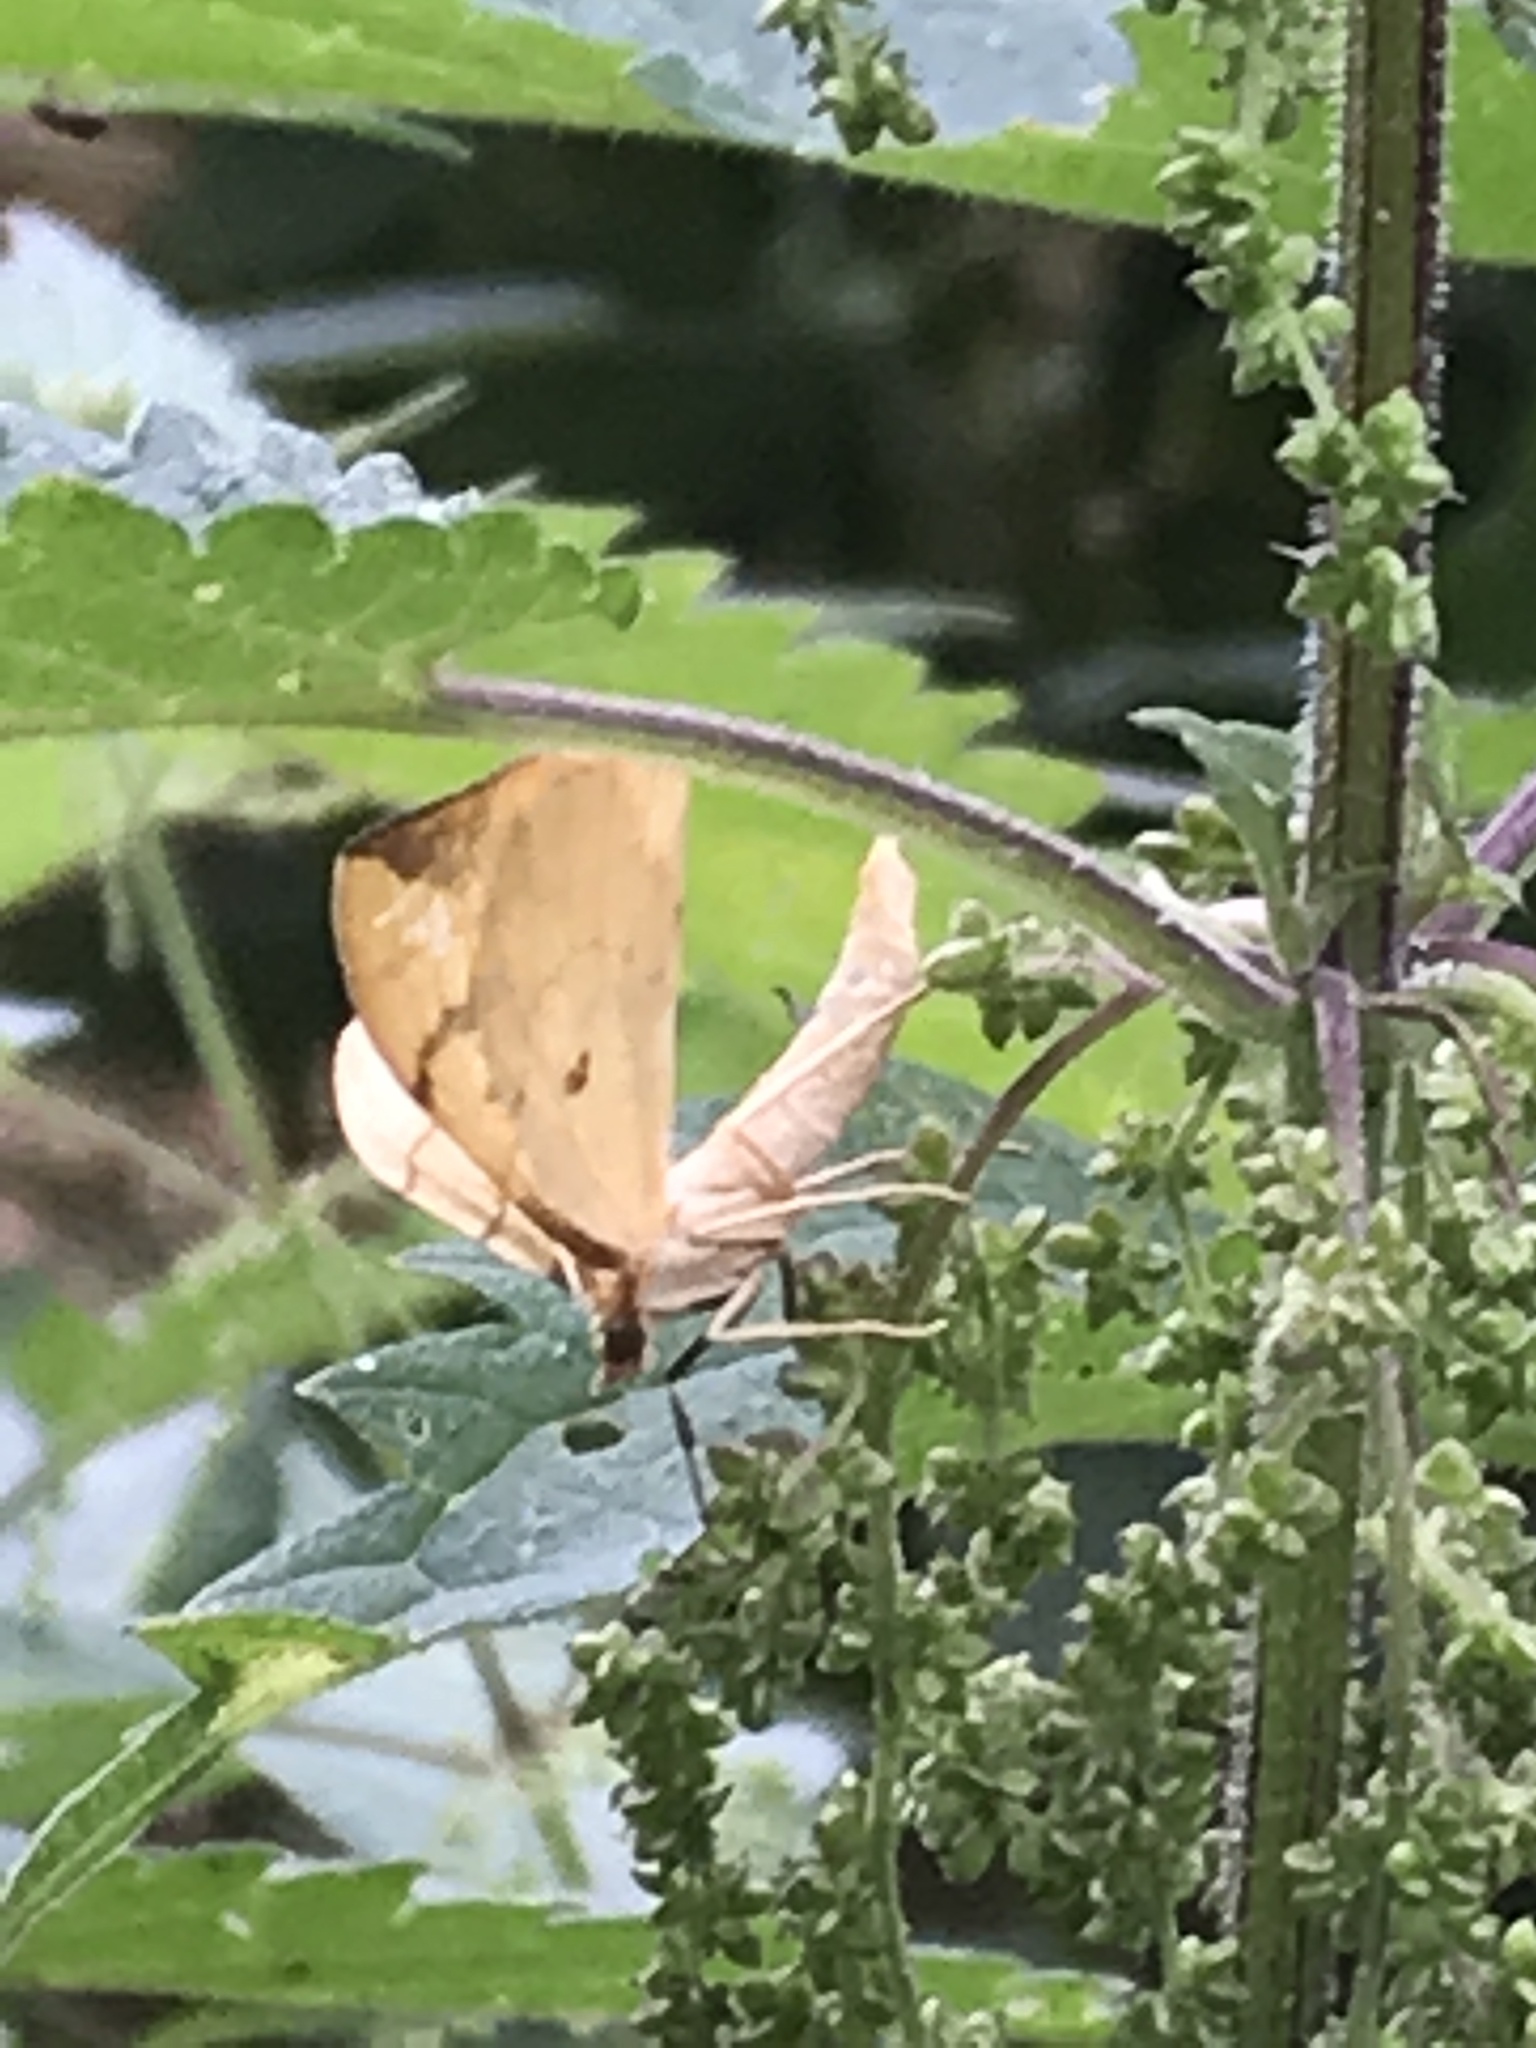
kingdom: Animalia
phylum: Arthropoda
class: Insecta
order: Lepidoptera
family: Geometridae
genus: Eulithis
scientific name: Eulithis pyraliata
